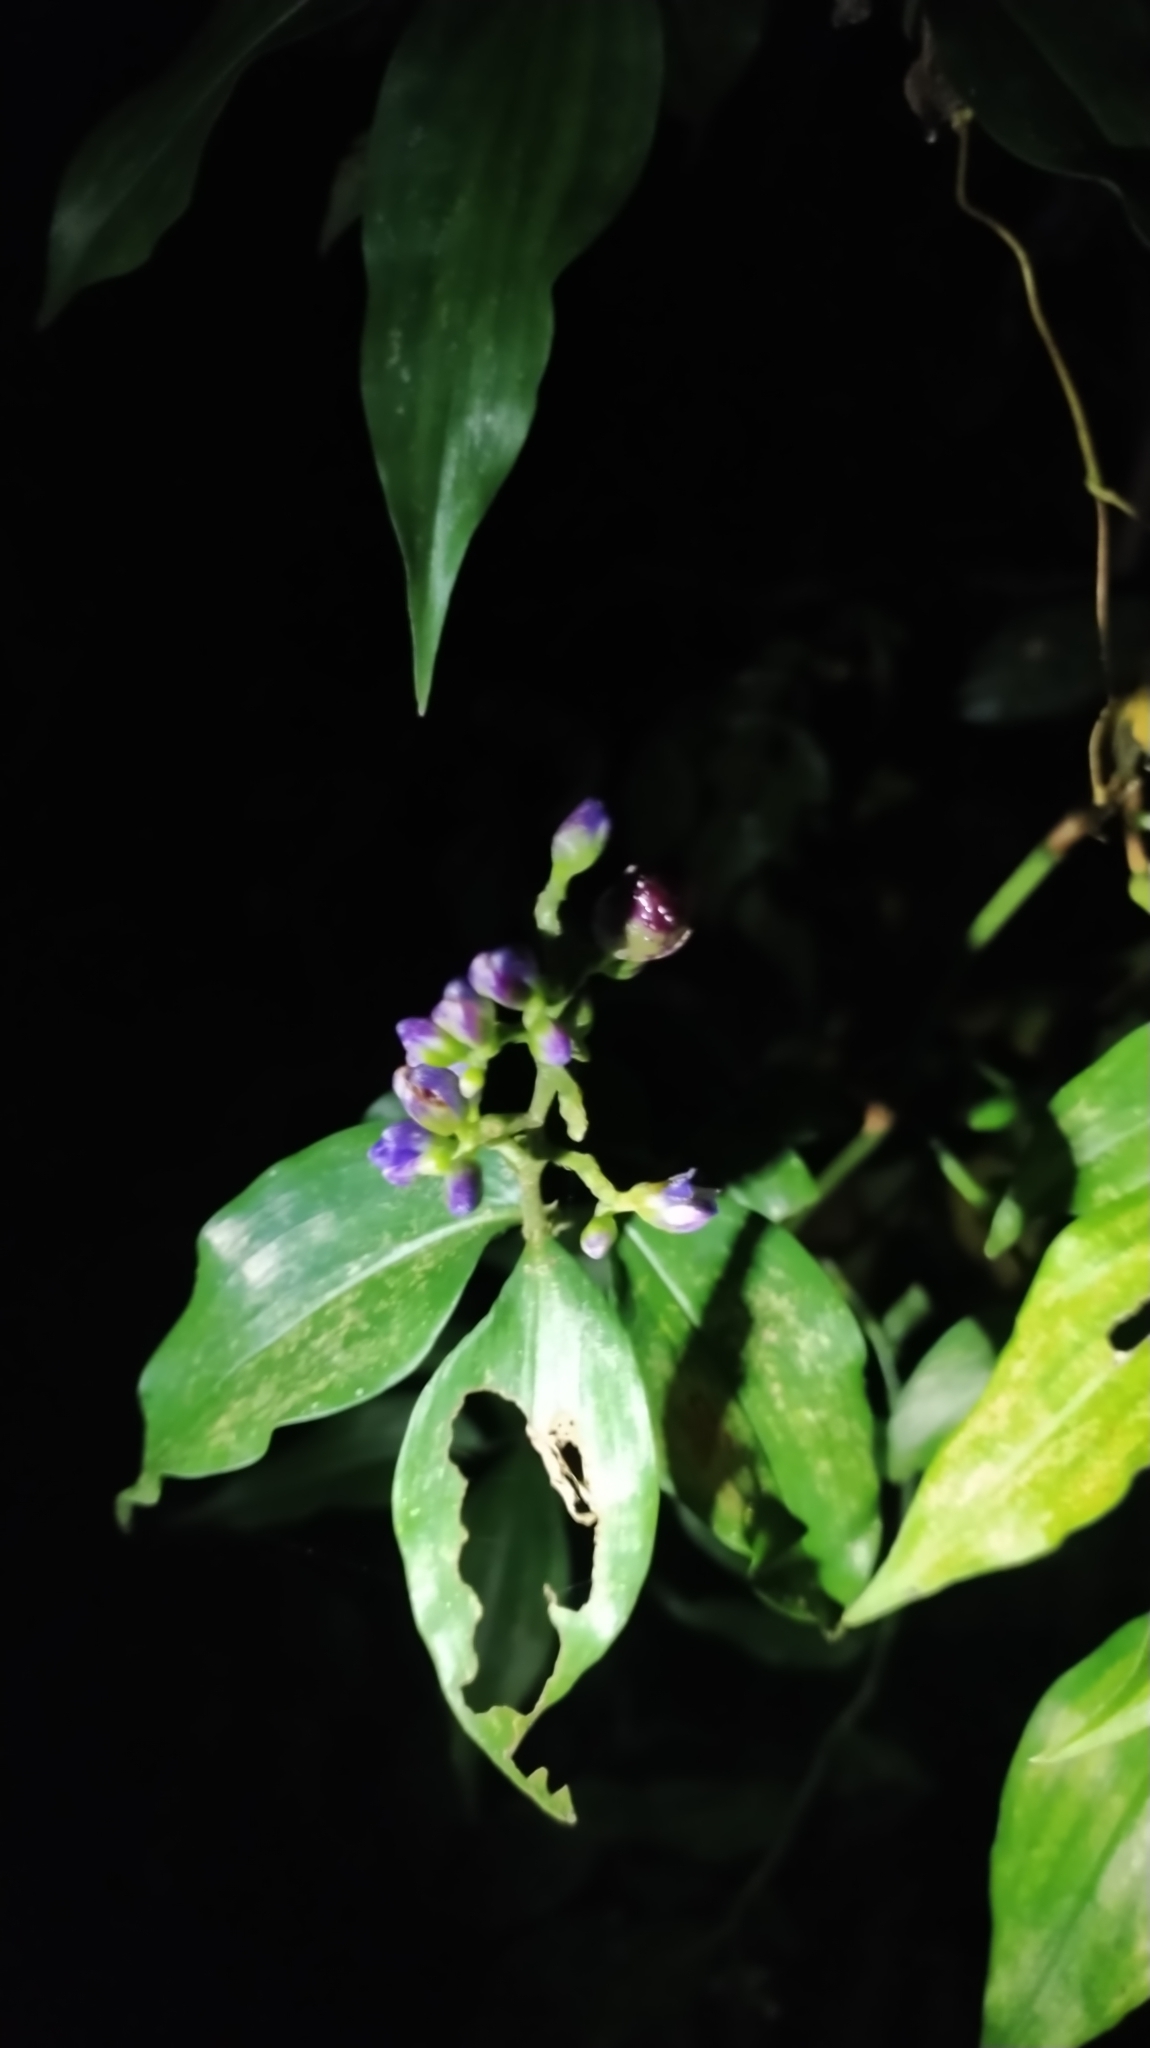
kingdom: Plantae
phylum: Tracheophyta
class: Liliopsida
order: Commelinales
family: Commelinaceae
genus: Dichorisandra
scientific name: Dichorisandra hexandra
